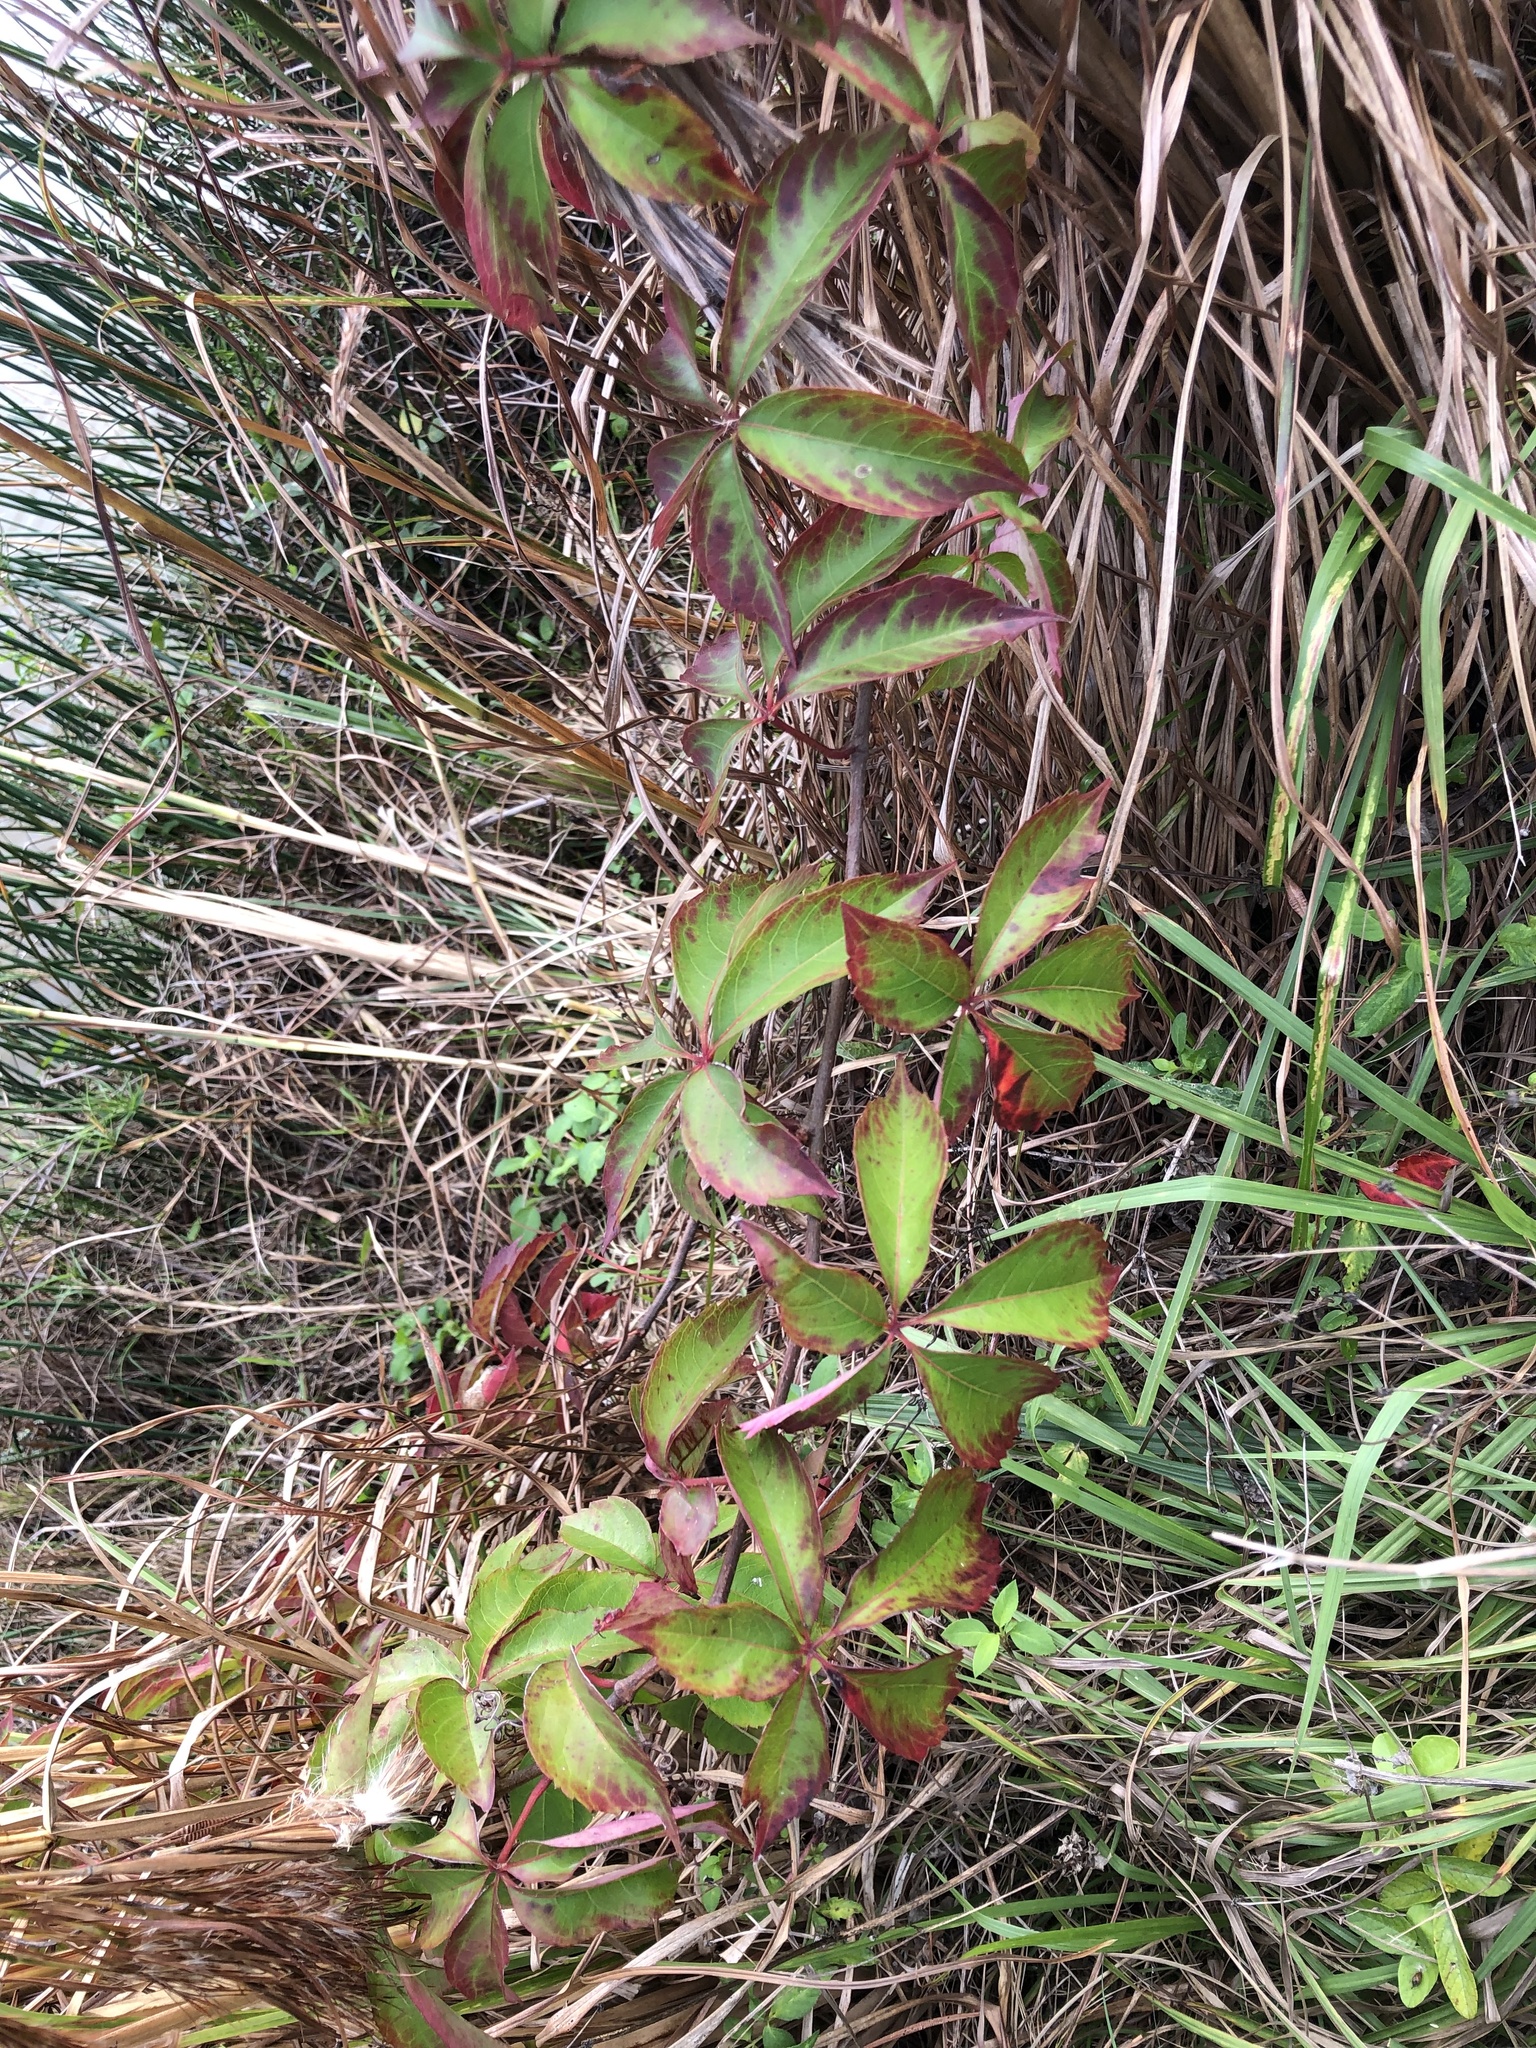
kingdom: Plantae
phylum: Tracheophyta
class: Magnoliopsida
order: Vitales
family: Vitaceae
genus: Parthenocissus
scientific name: Parthenocissus quinquefolia
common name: Virginia-creeper
